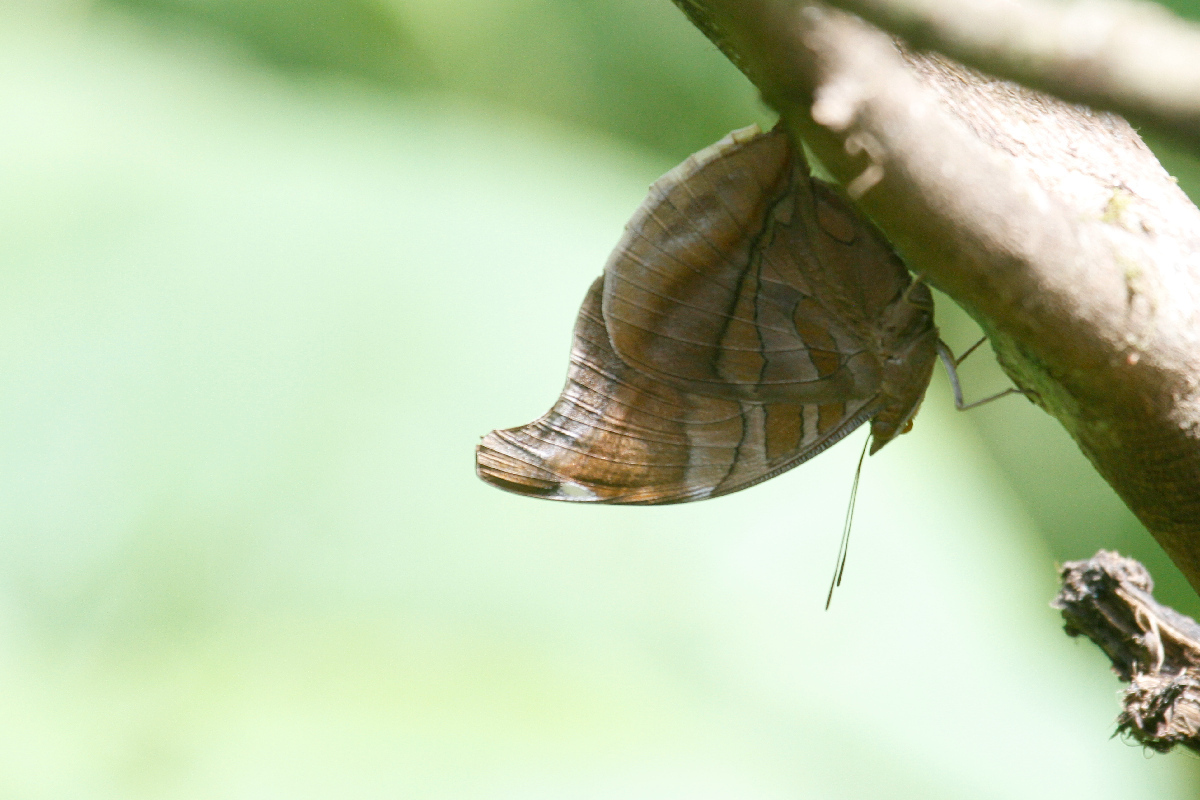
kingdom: Animalia
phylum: Arthropoda
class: Insecta
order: Lepidoptera
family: Nymphalidae
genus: Historis
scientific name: Historis odius
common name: Orion cecropian
